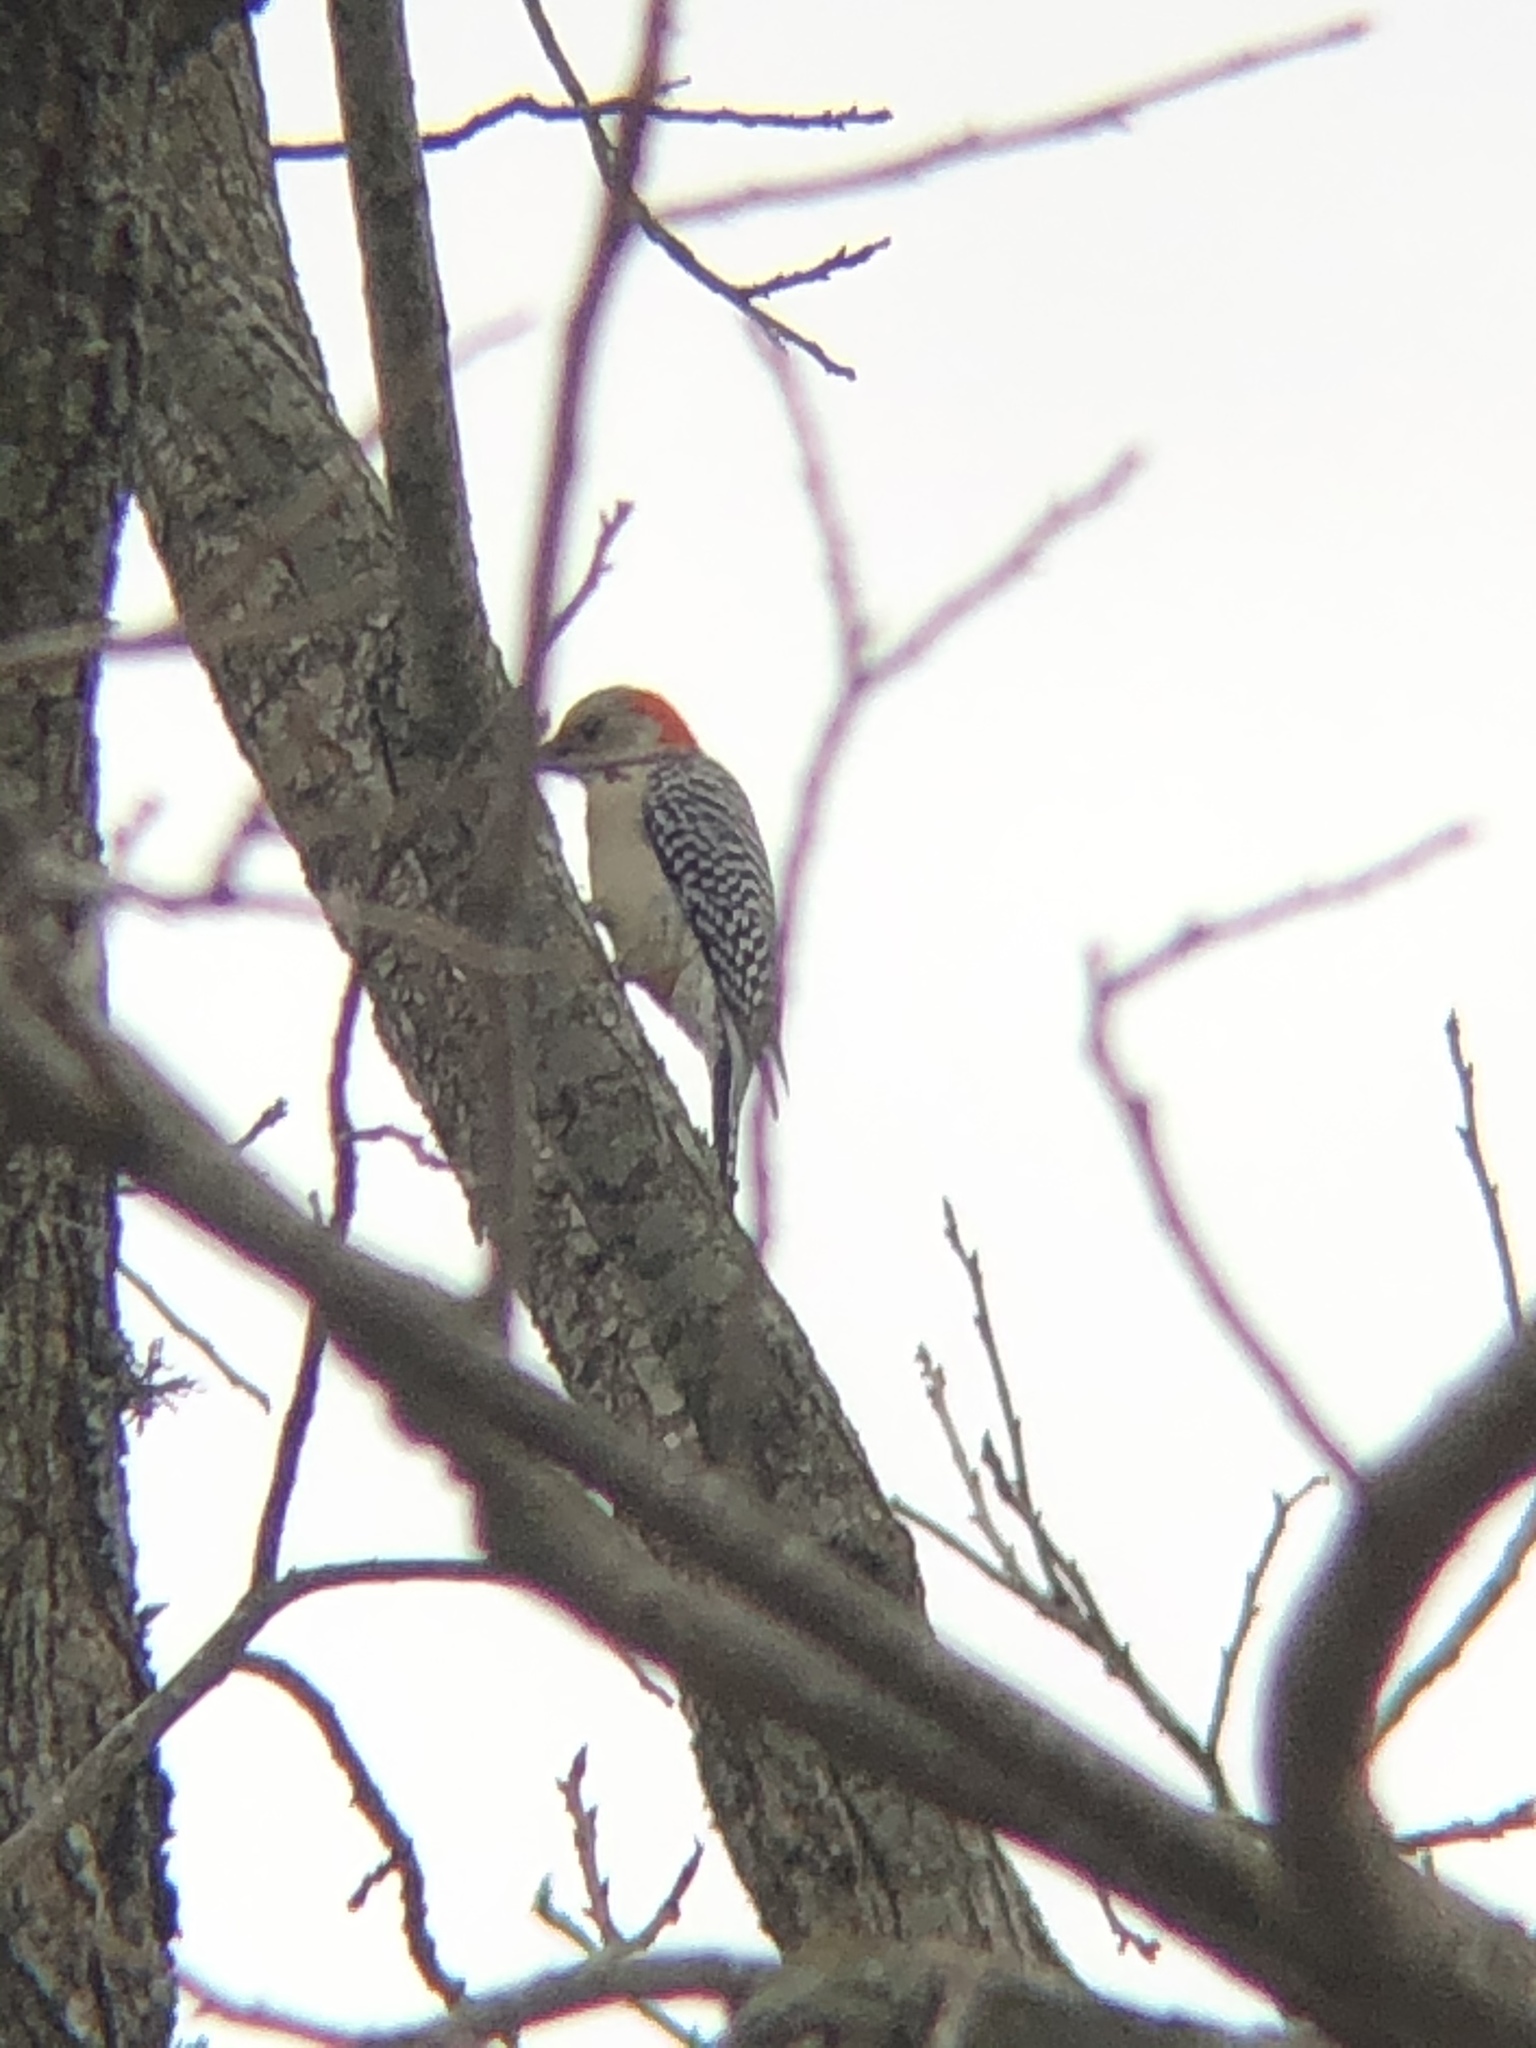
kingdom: Animalia
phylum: Chordata
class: Aves
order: Piciformes
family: Picidae
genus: Melanerpes
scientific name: Melanerpes carolinus
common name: Red-bellied woodpecker
